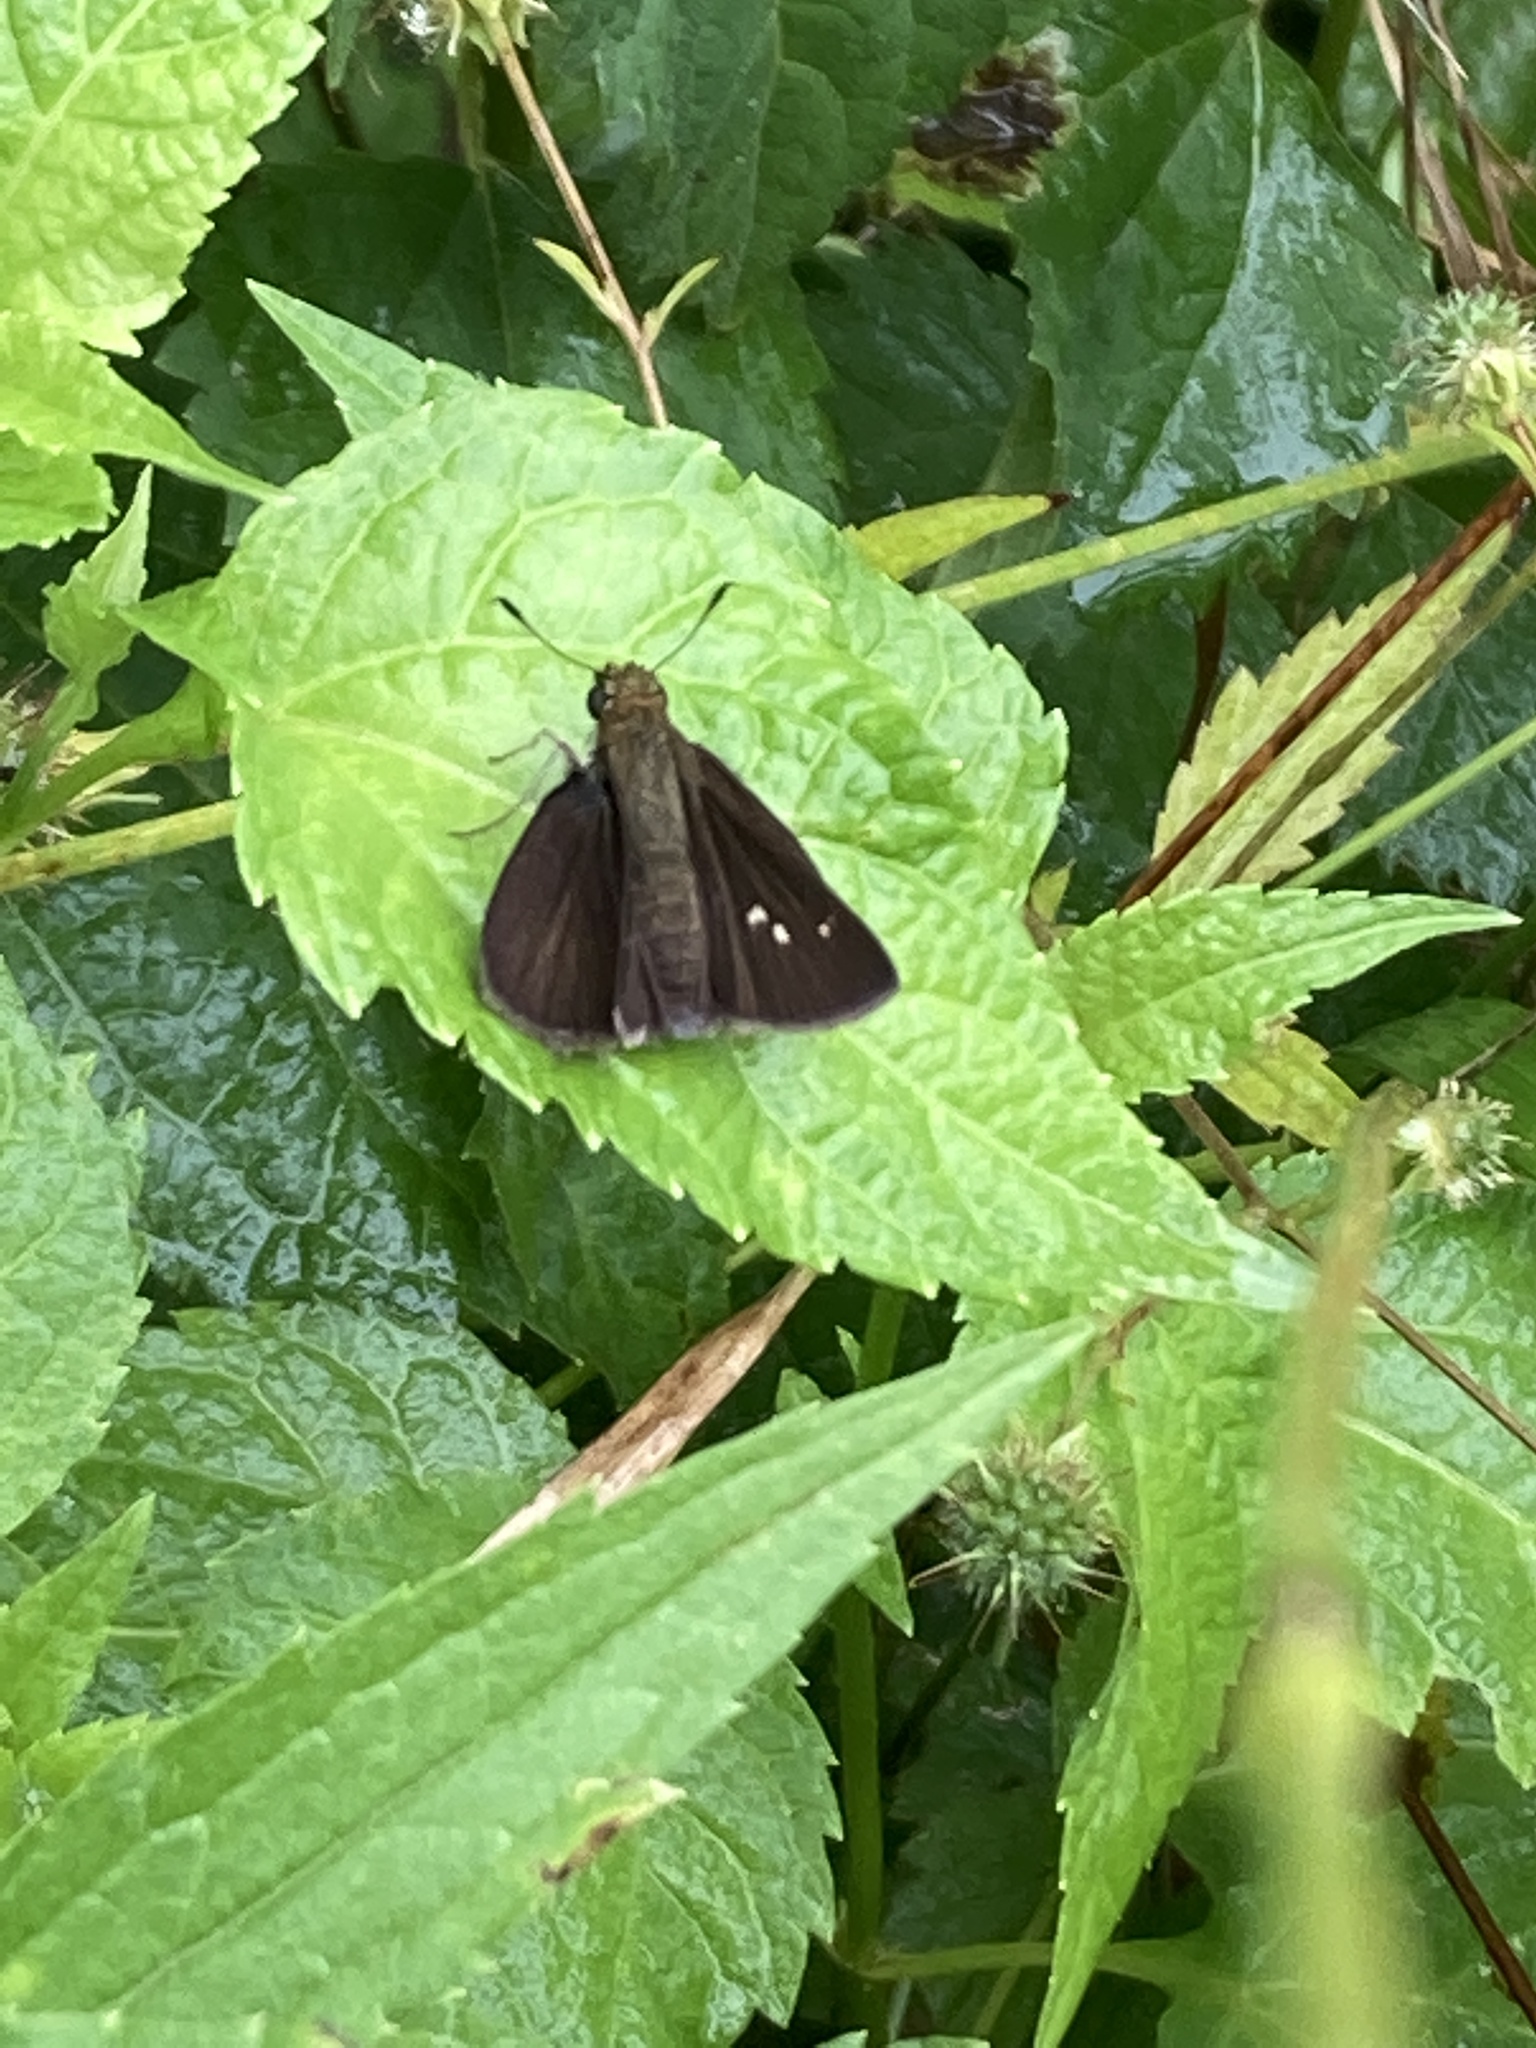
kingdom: Animalia
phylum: Arthropoda
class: Insecta
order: Lepidoptera
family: Hesperiidae
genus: Euphyes
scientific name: Euphyes vestris
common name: Dun skipper
